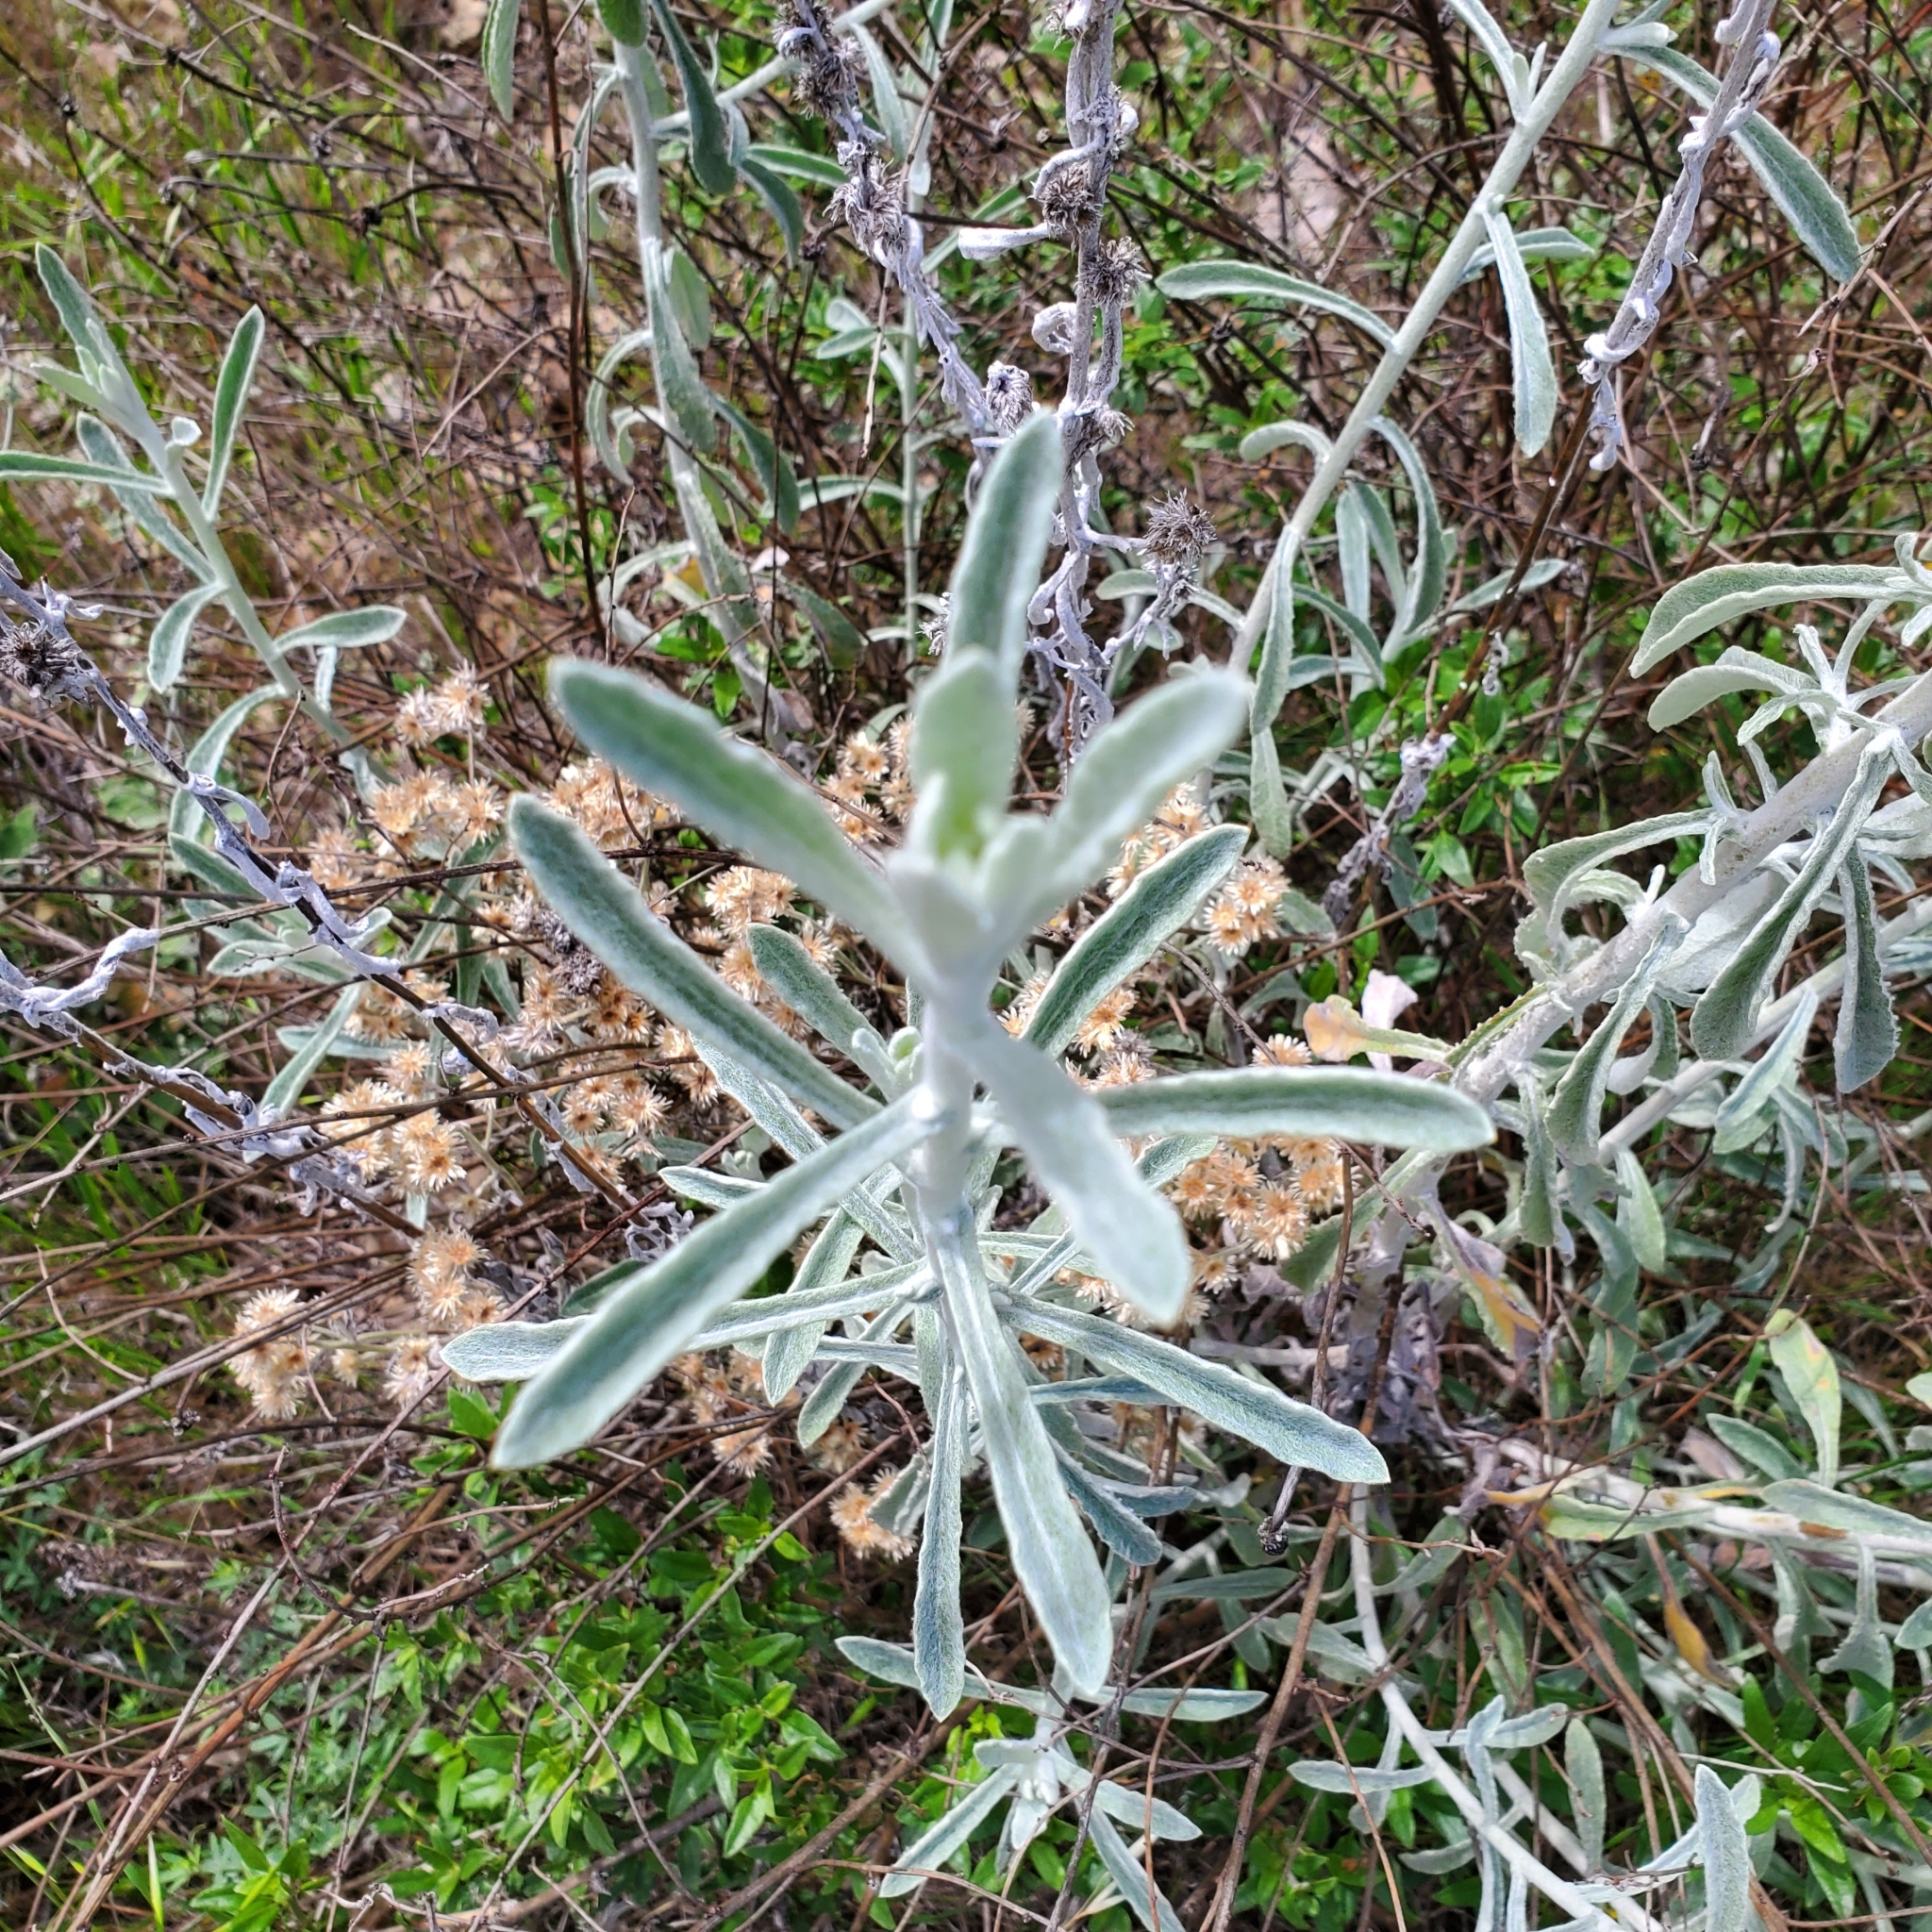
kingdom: Plantae
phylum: Tracheophyta
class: Magnoliopsida
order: Asterales
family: Asteraceae
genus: Pseudognaphalium
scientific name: Pseudognaphalium microcephalum
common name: San diego rabbit-tobacco
